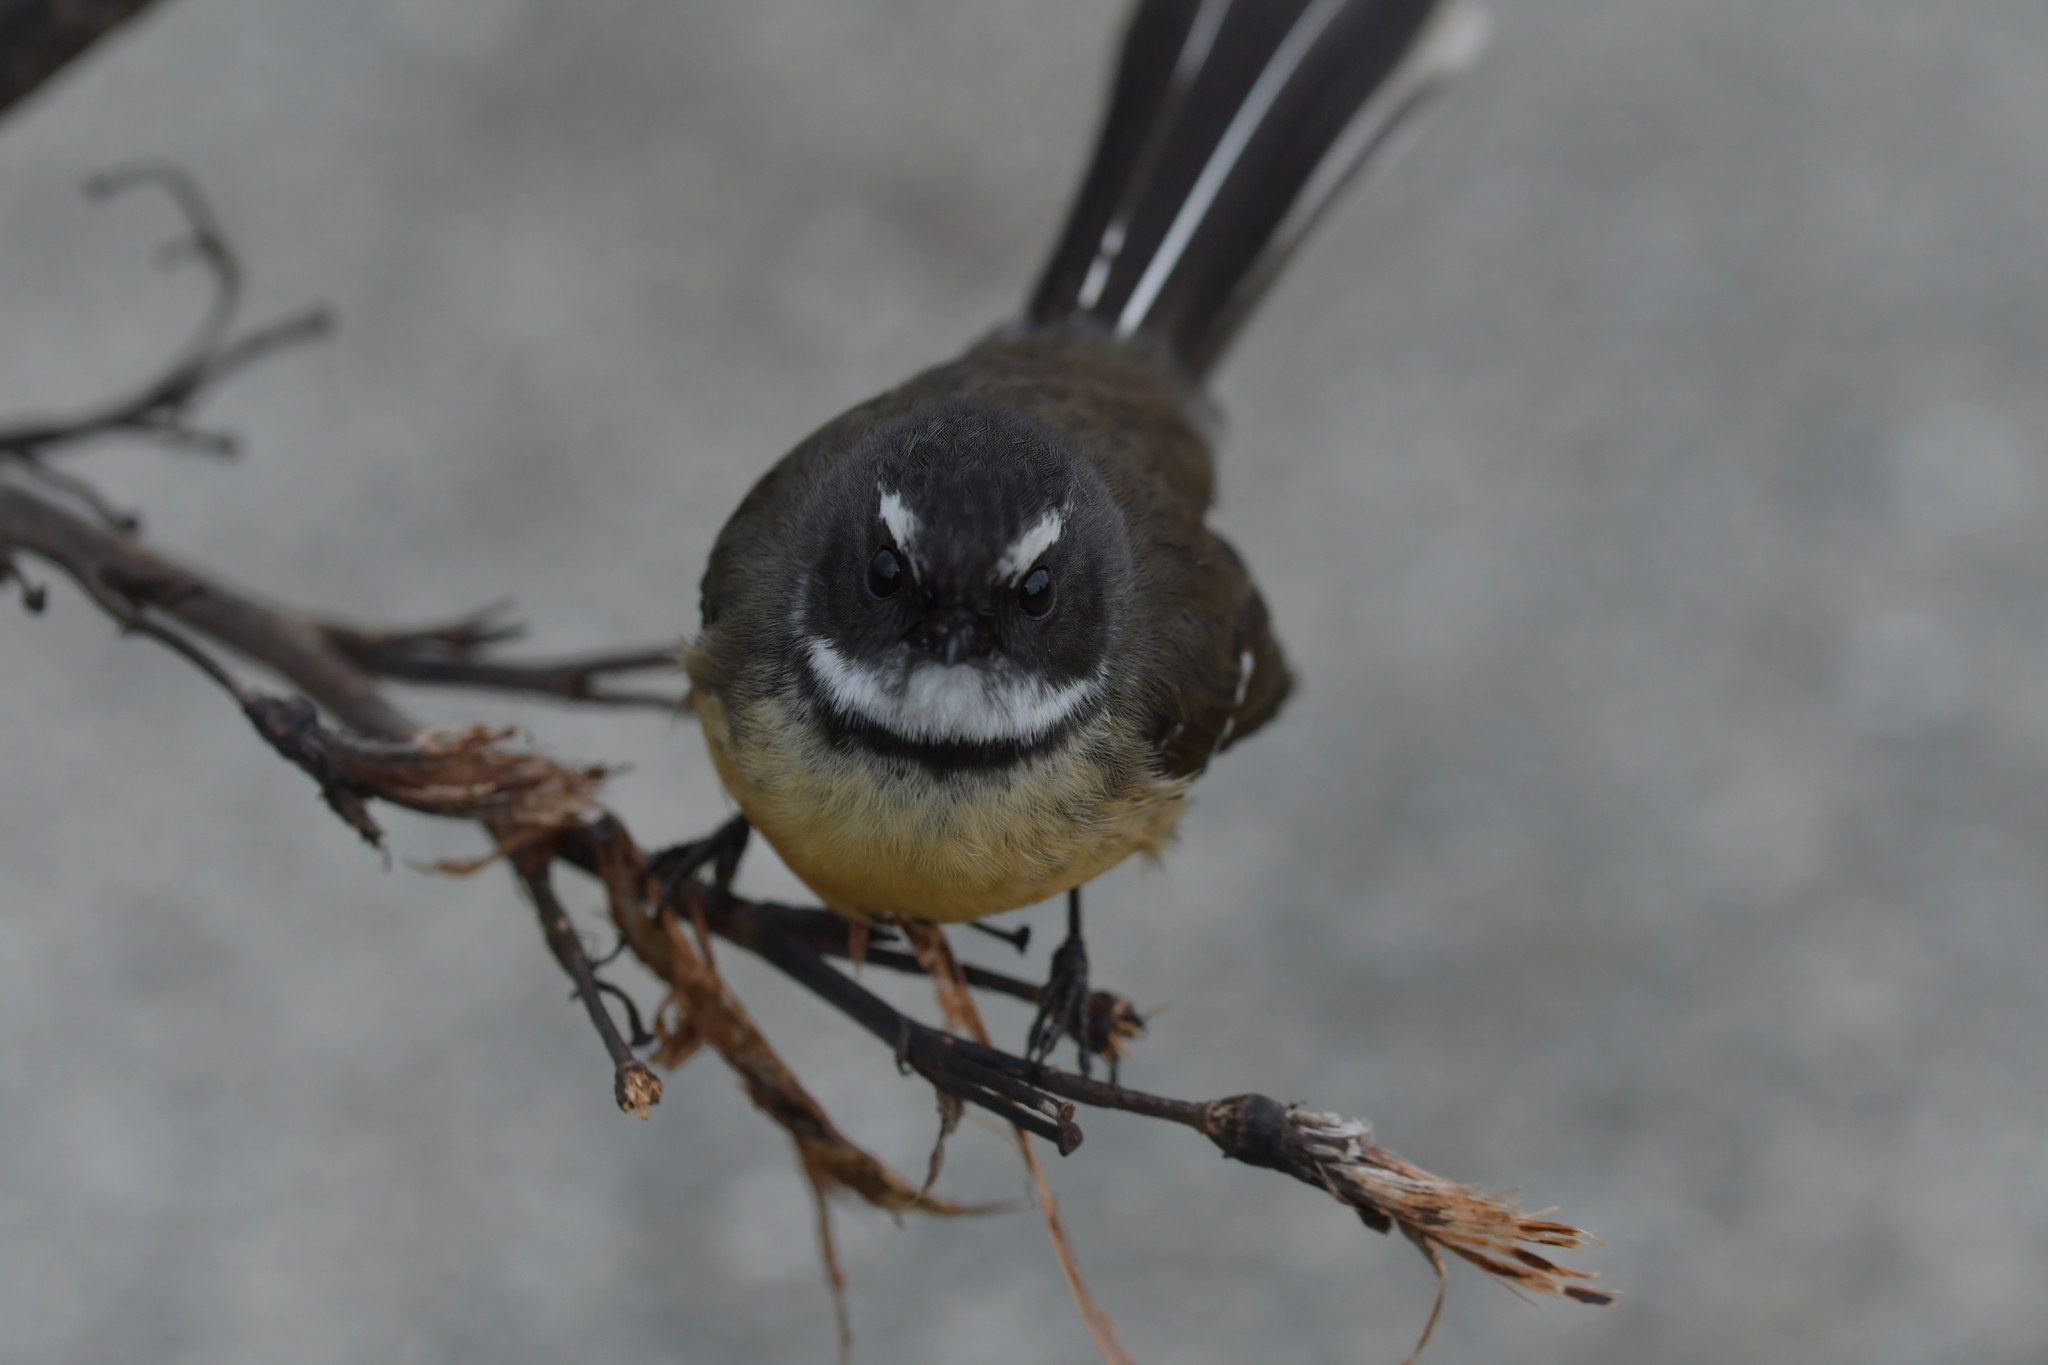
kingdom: Animalia
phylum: Chordata
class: Aves
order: Passeriformes
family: Rhipiduridae
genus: Rhipidura
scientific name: Rhipidura fuliginosa
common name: New zealand fantail
